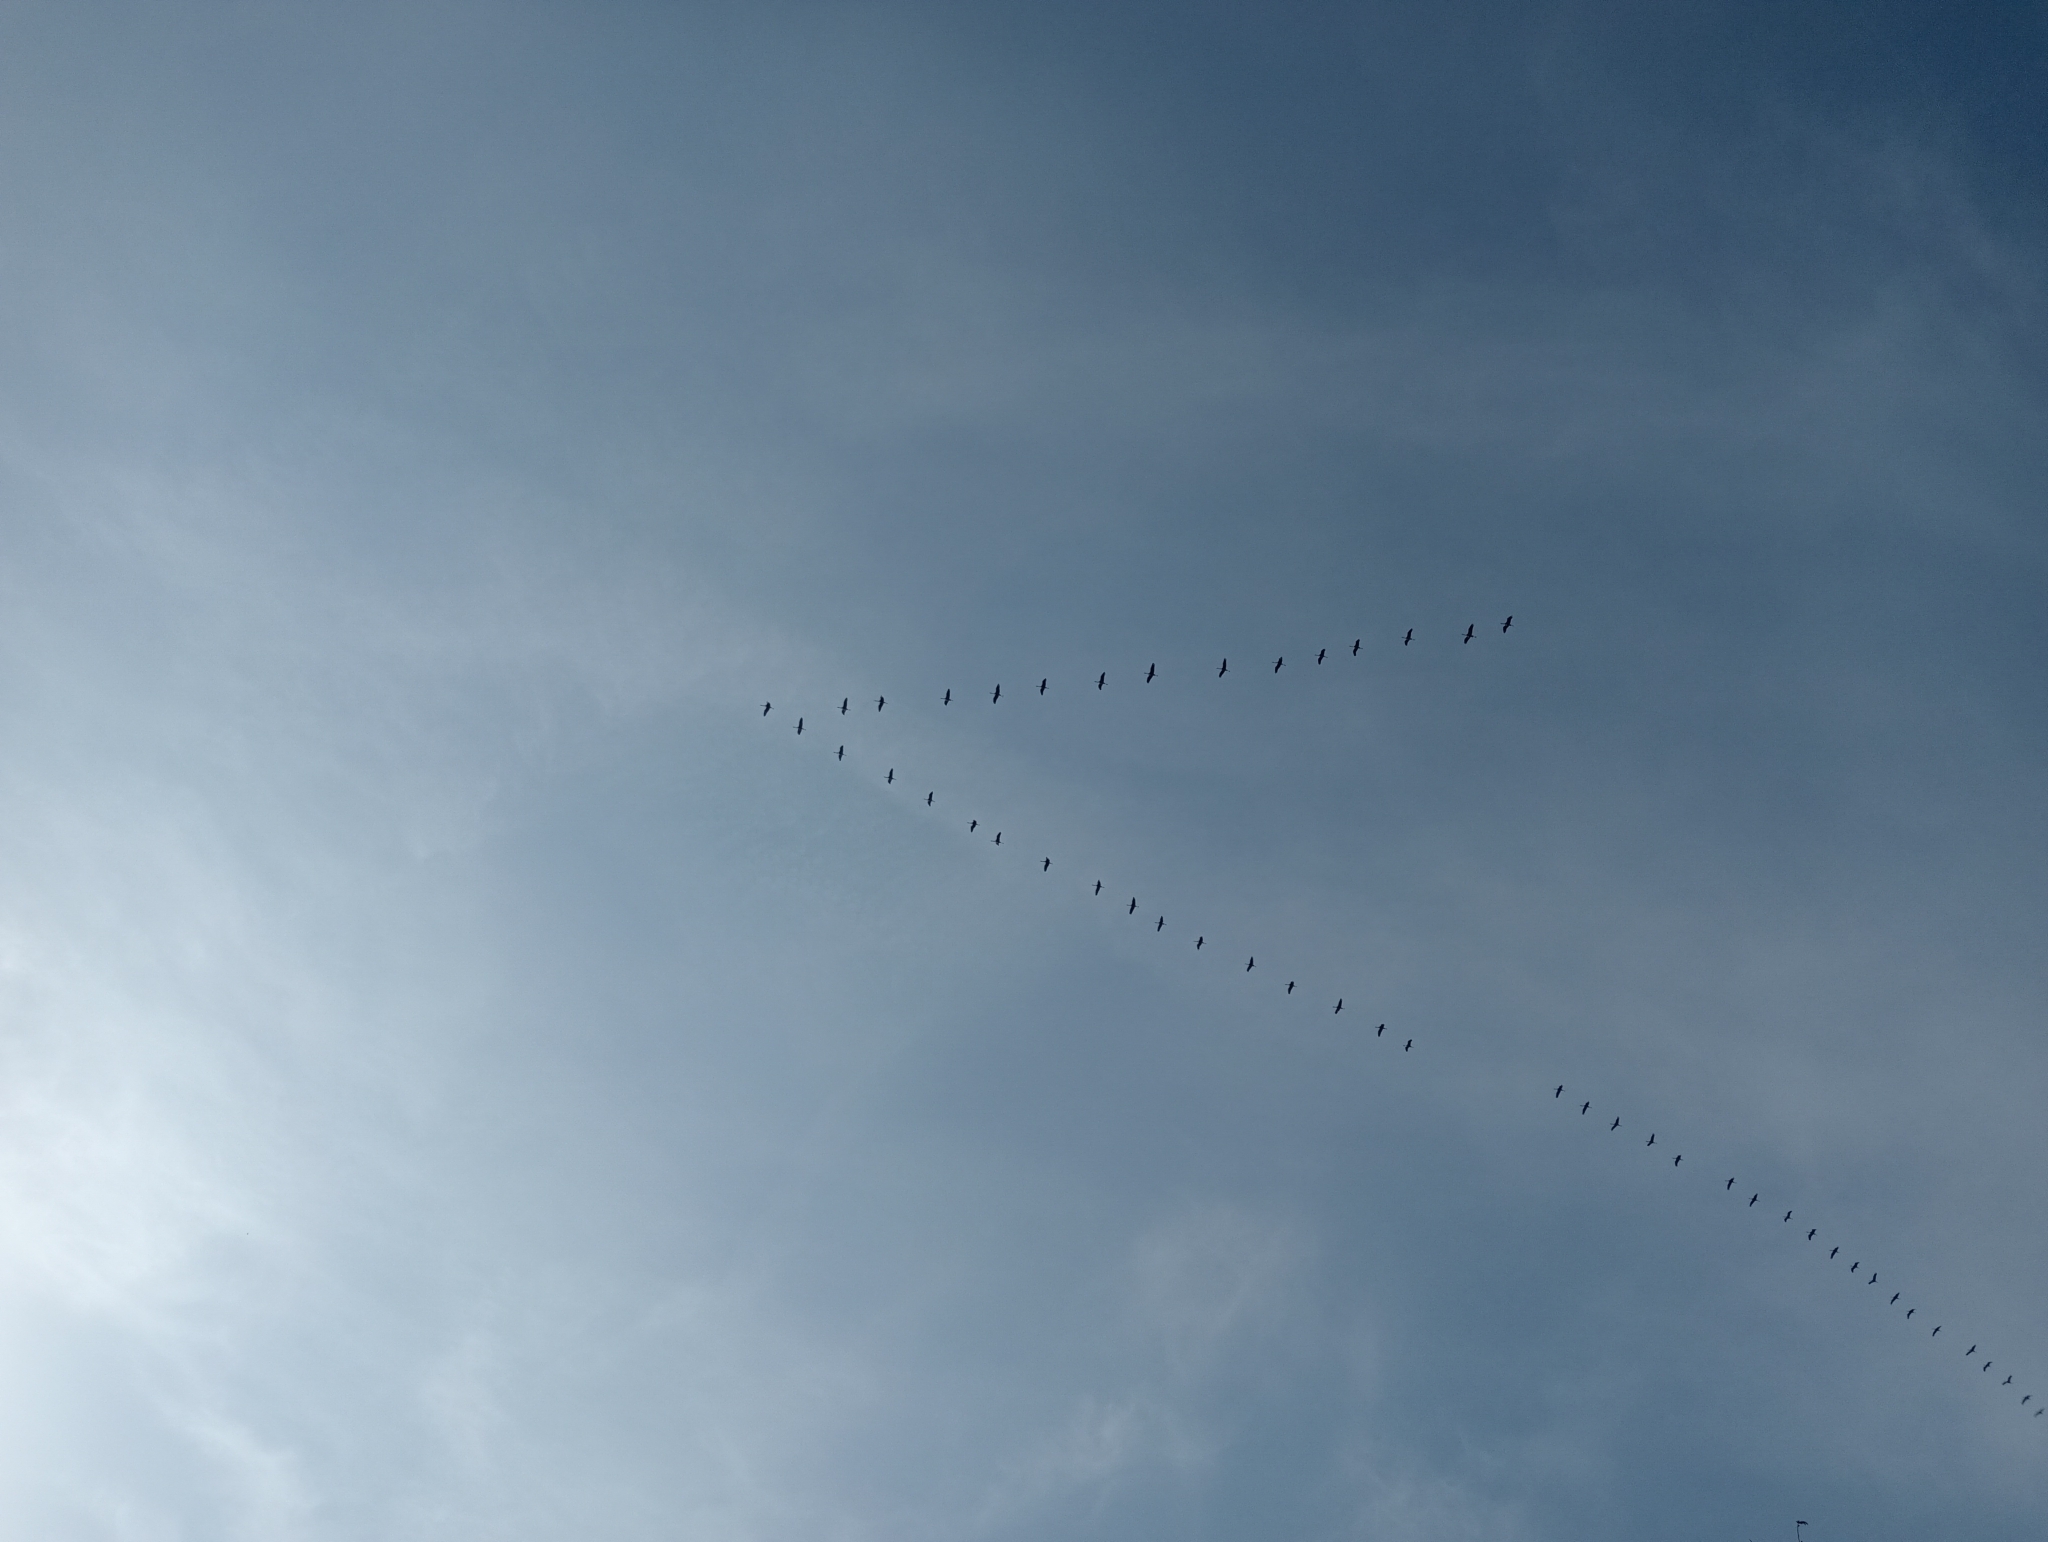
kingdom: Animalia
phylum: Chordata
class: Aves
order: Gruiformes
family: Gruidae
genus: Grus
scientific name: Grus grus
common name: Common crane
